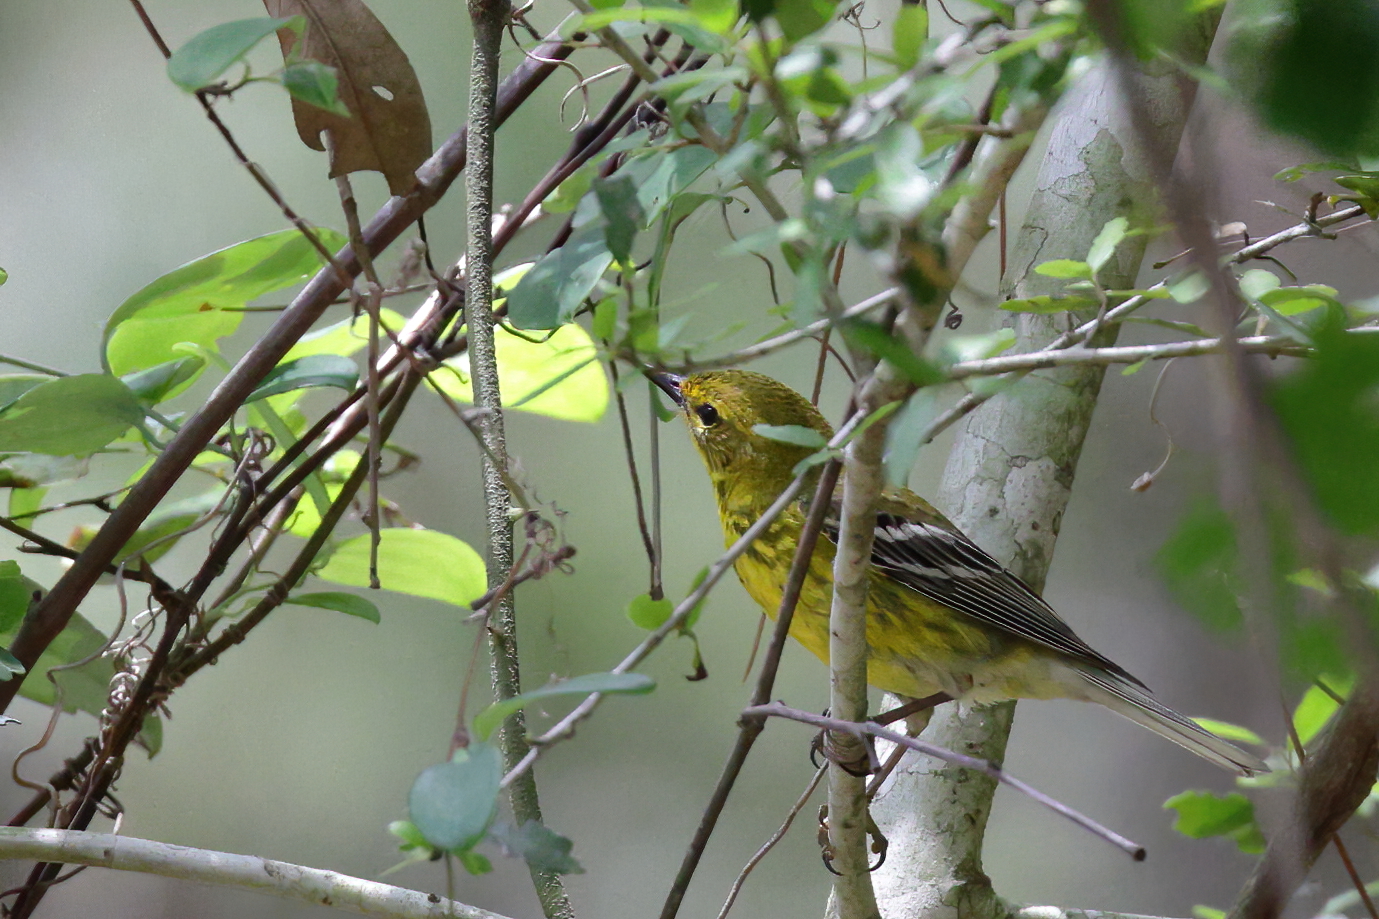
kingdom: Animalia
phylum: Chordata
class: Aves
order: Passeriformes
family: Parulidae
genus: Setophaga
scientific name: Setophaga pinus
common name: Pine warbler
